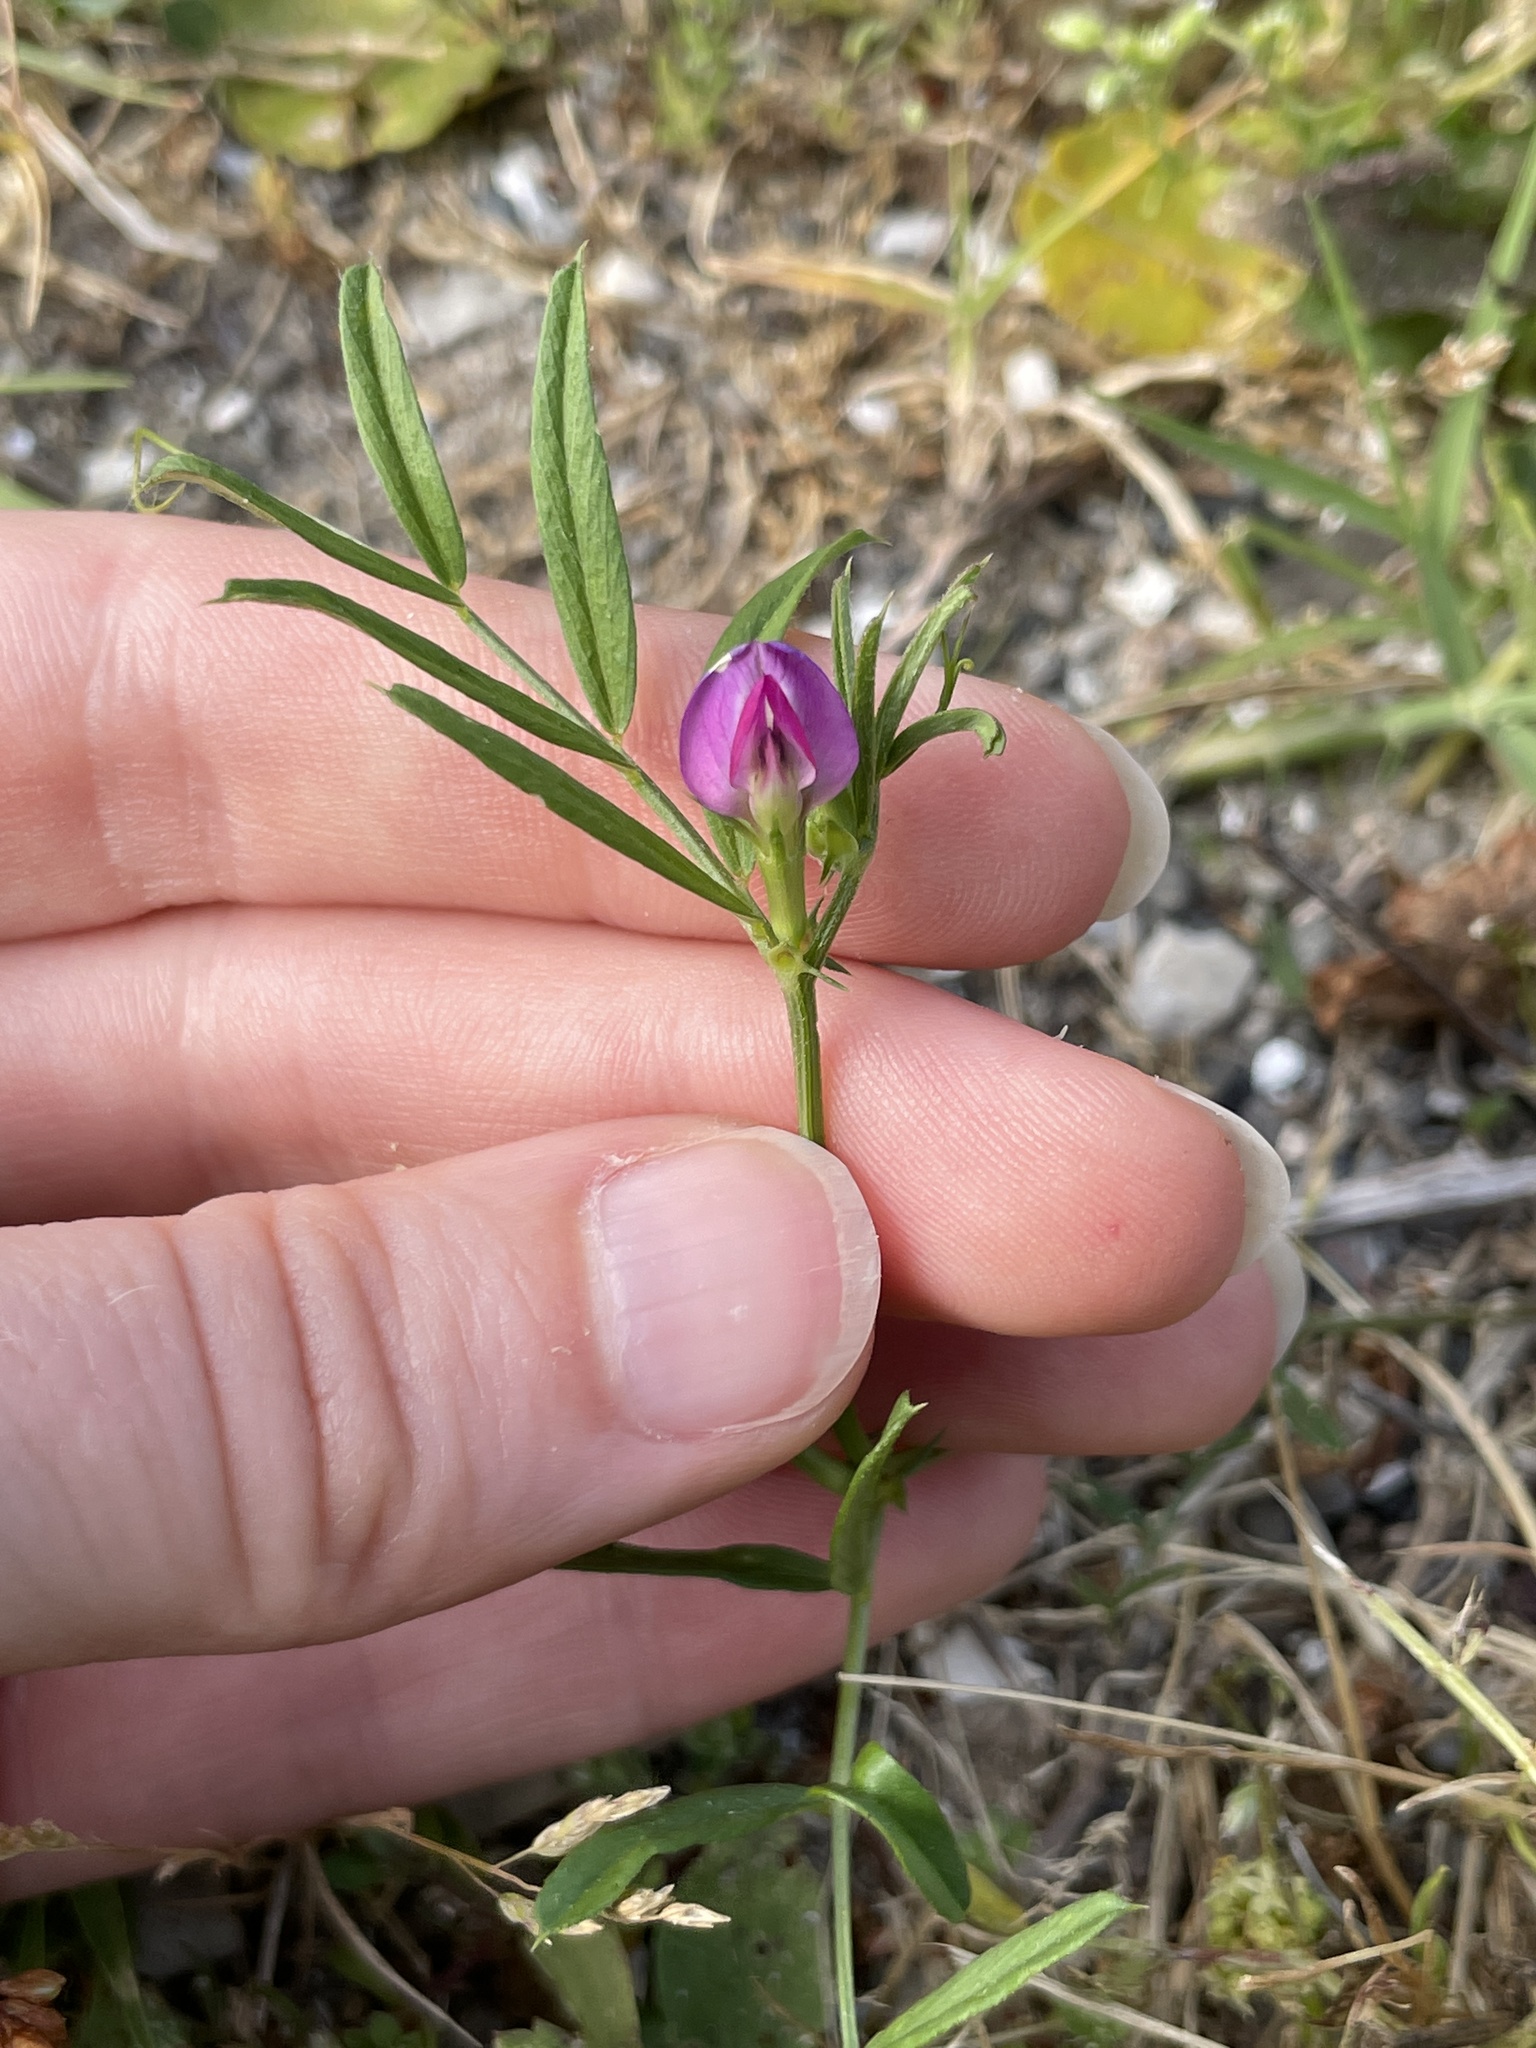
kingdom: Plantae
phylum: Tracheophyta
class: Magnoliopsida
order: Fabales
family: Fabaceae
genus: Vicia
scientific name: Vicia sativa
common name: Garden vetch
